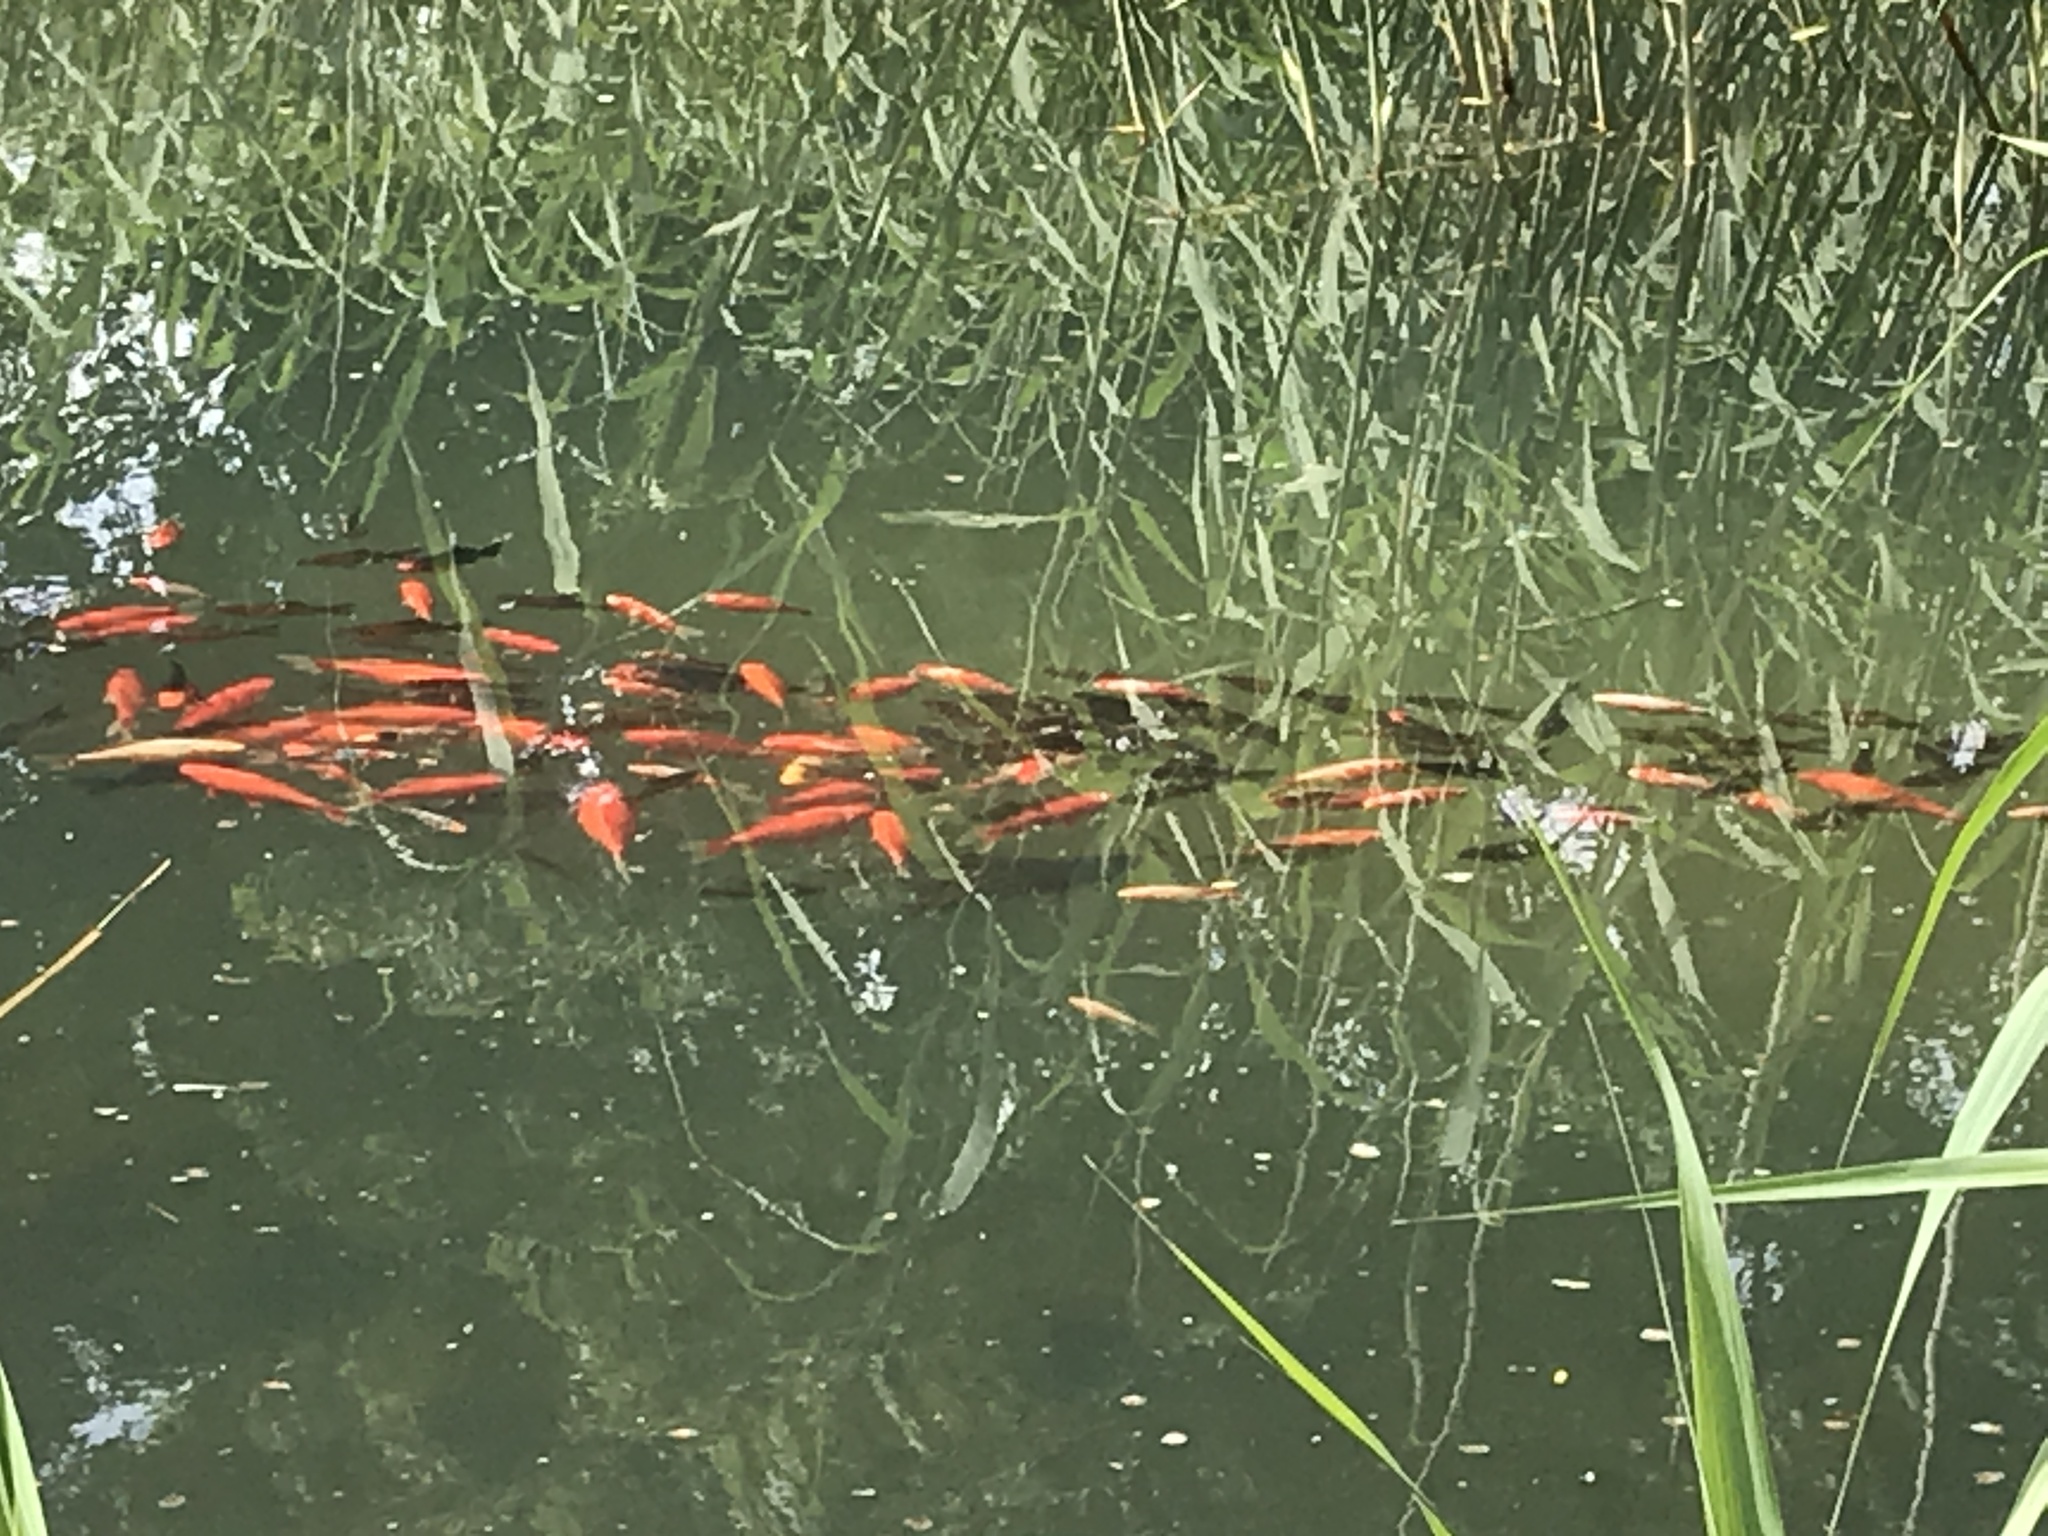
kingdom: Animalia
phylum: Chordata
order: Cypriniformes
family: Cyprinidae
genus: Carassius
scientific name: Carassius auratus
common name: Goldfish
